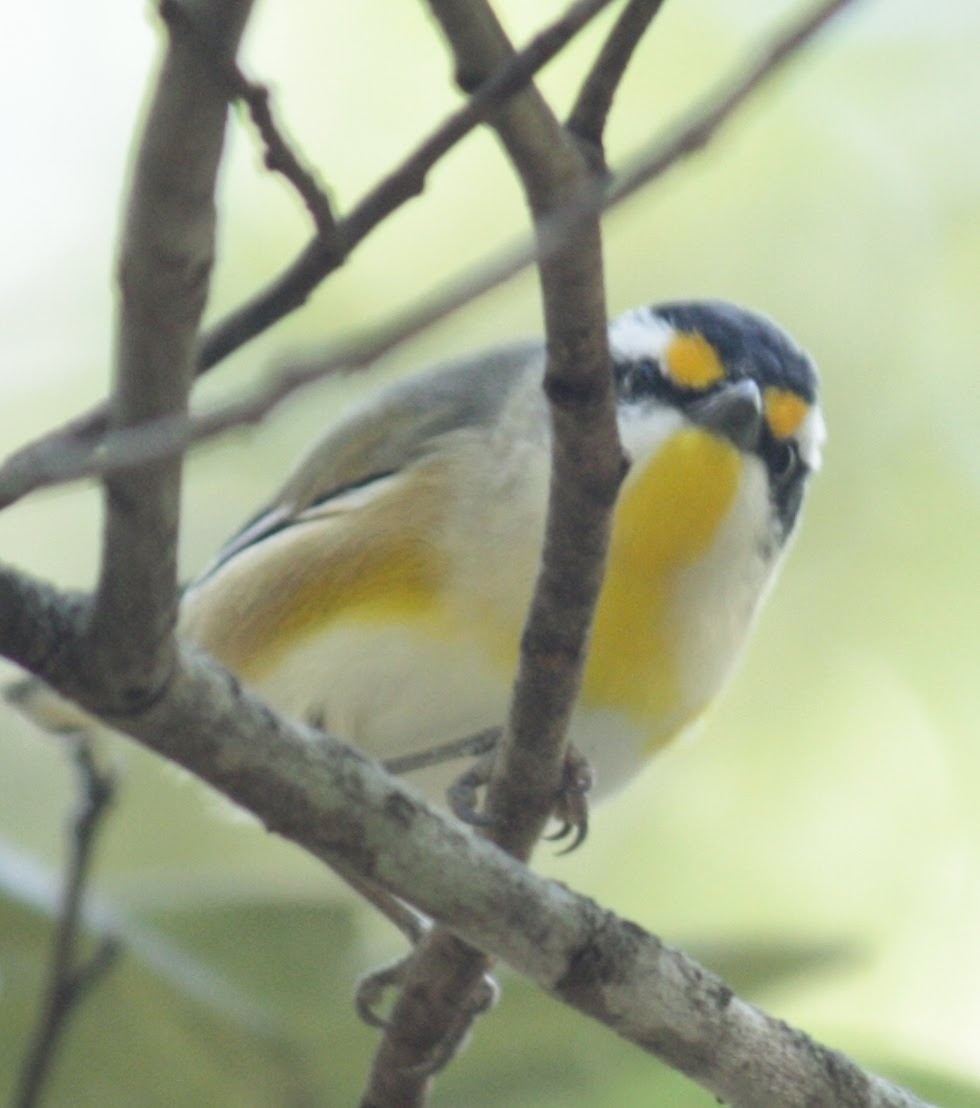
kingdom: Animalia
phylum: Chordata
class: Aves
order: Passeriformes
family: Pardalotidae
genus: Pardalotus
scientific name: Pardalotus striatus
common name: Striated pardalote
